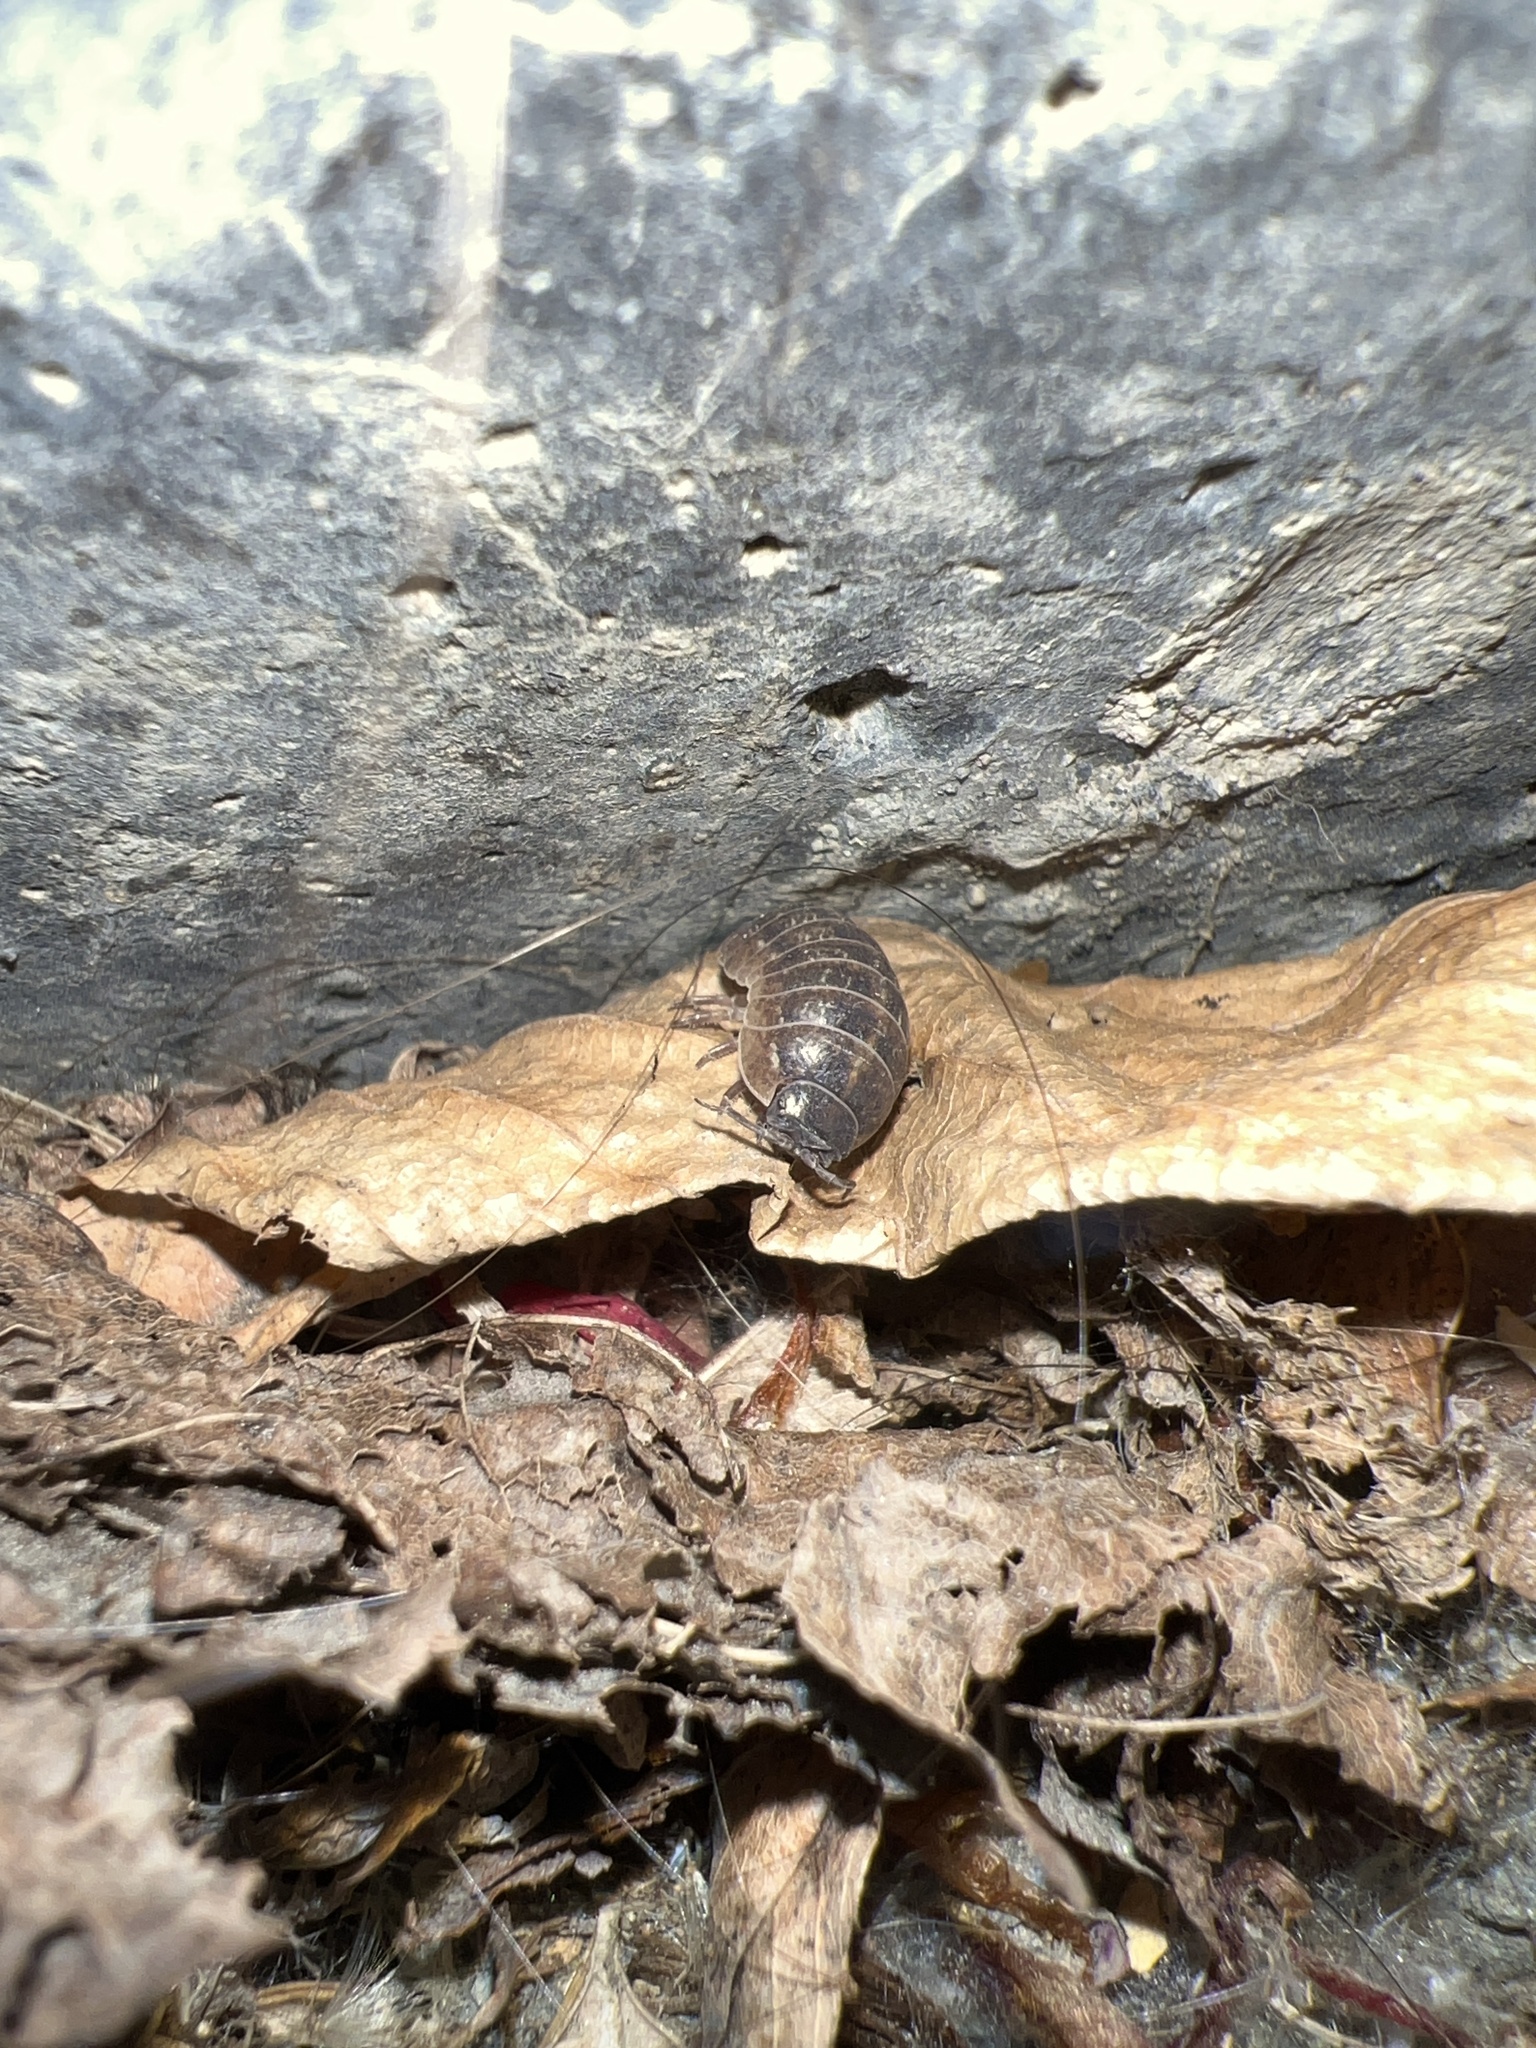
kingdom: Animalia
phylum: Arthropoda
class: Malacostraca
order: Isopoda
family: Armadillidiidae
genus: Armadillidium
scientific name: Armadillidium vulgare
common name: Common pill woodlouse
